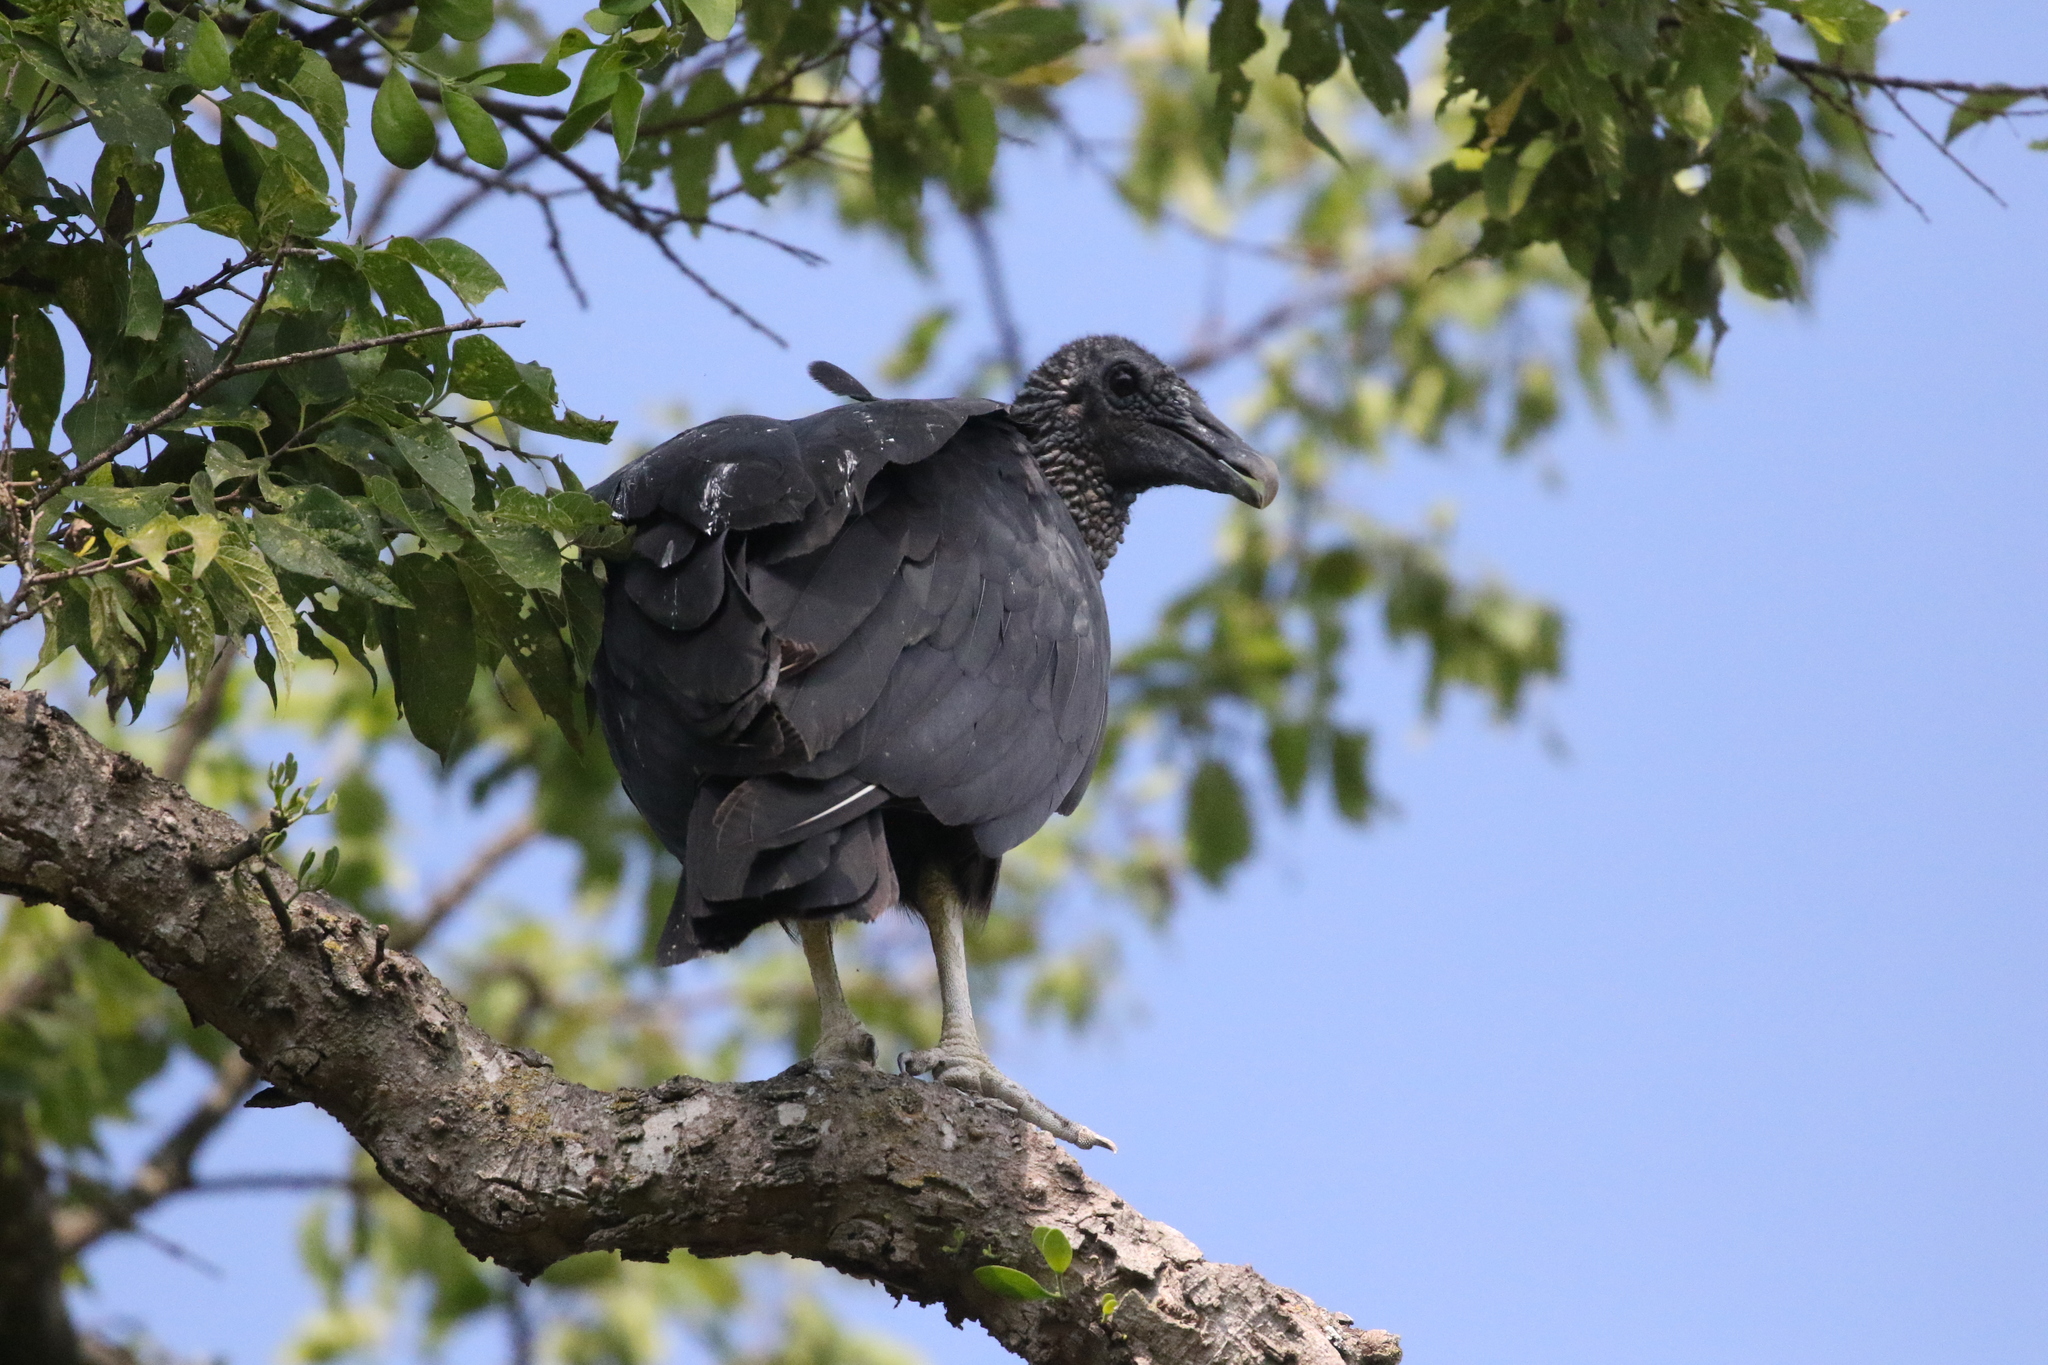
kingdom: Animalia
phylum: Chordata
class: Aves
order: Accipitriformes
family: Cathartidae
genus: Coragyps
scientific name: Coragyps atratus
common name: Black vulture
